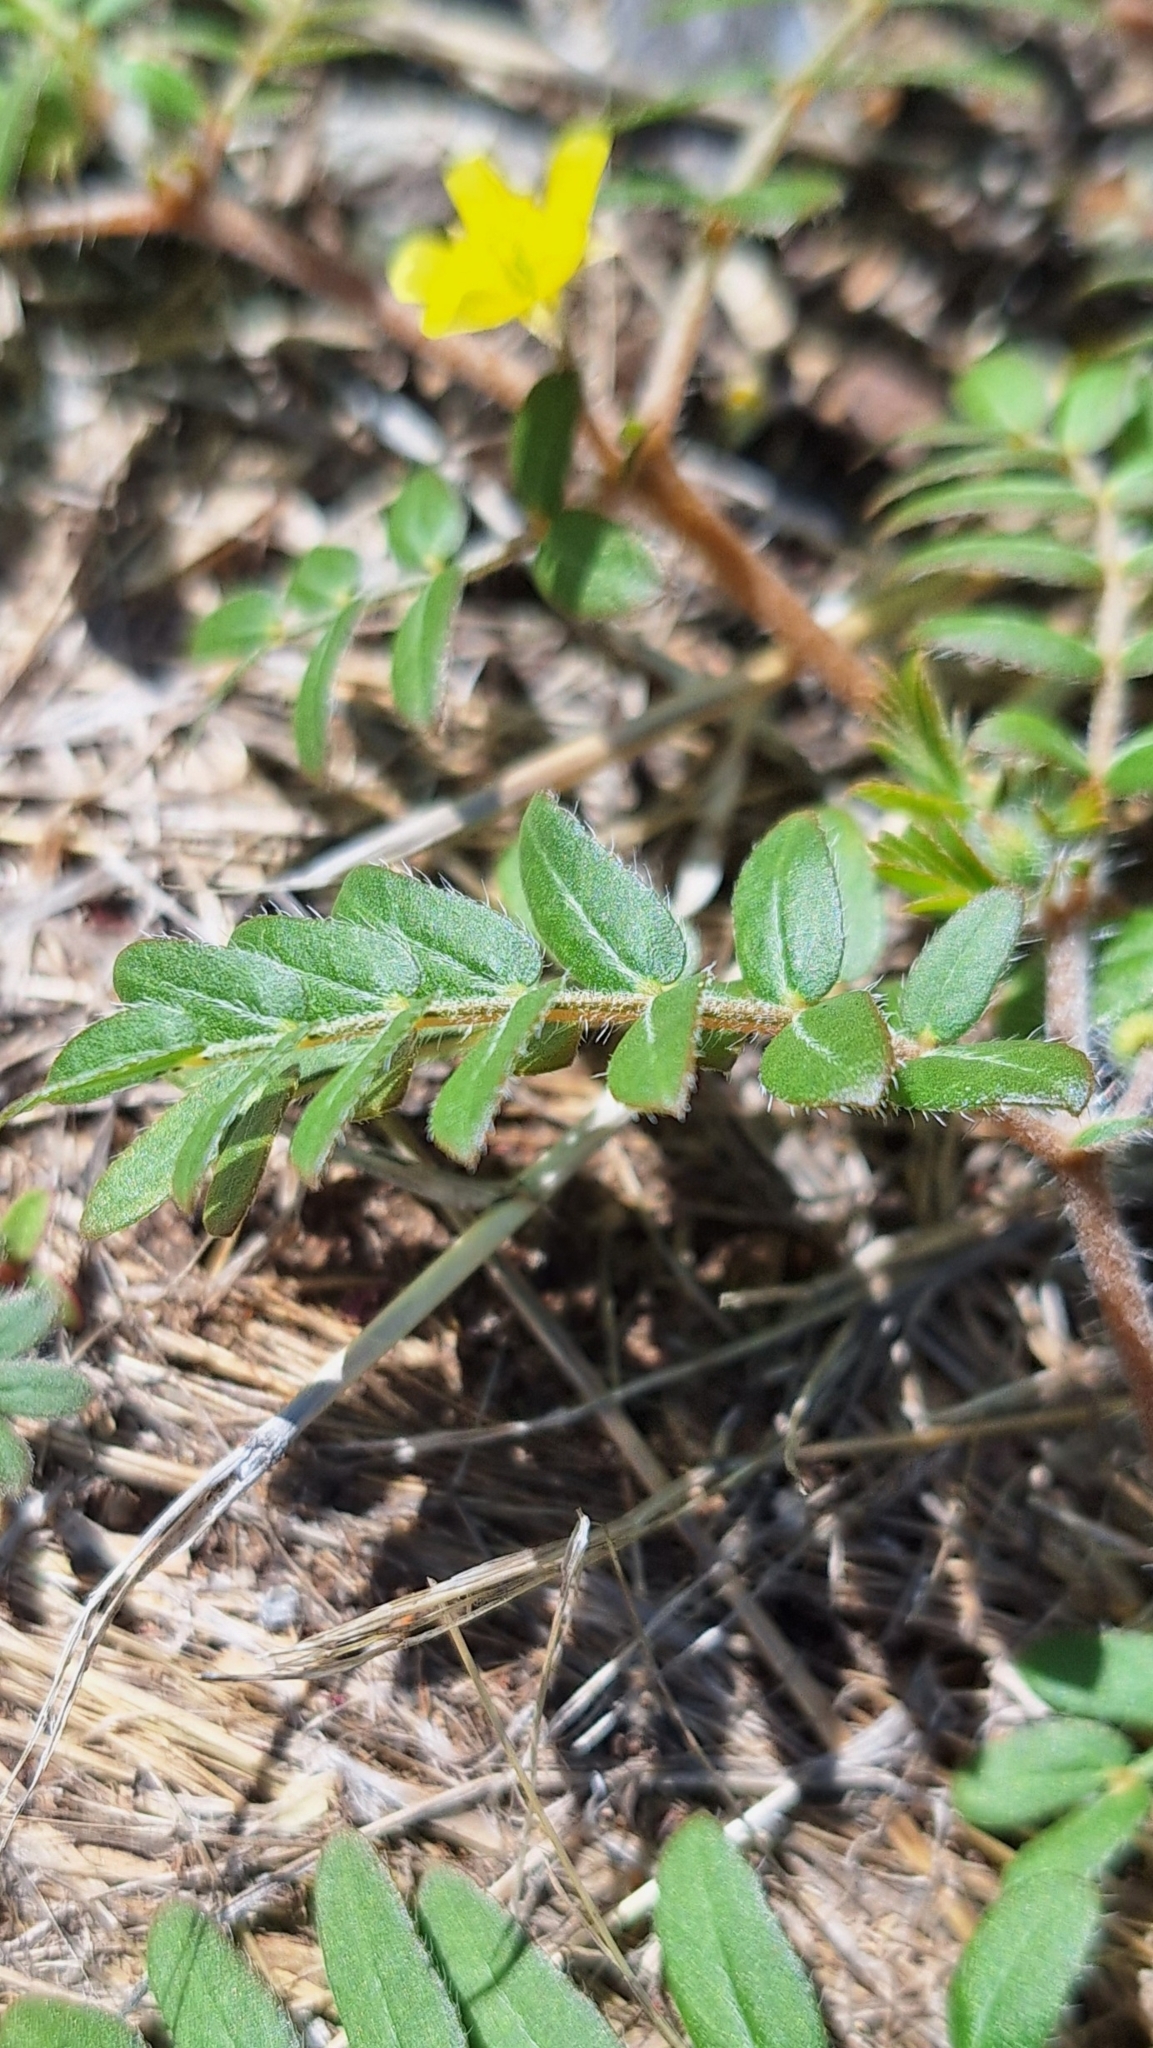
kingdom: Plantae
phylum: Tracheophyta
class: Magnoliopsida
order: Zygophyllales
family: Zygophyllaceae
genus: Tribulus
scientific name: Tribulus terrestris
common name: Puncturevine
